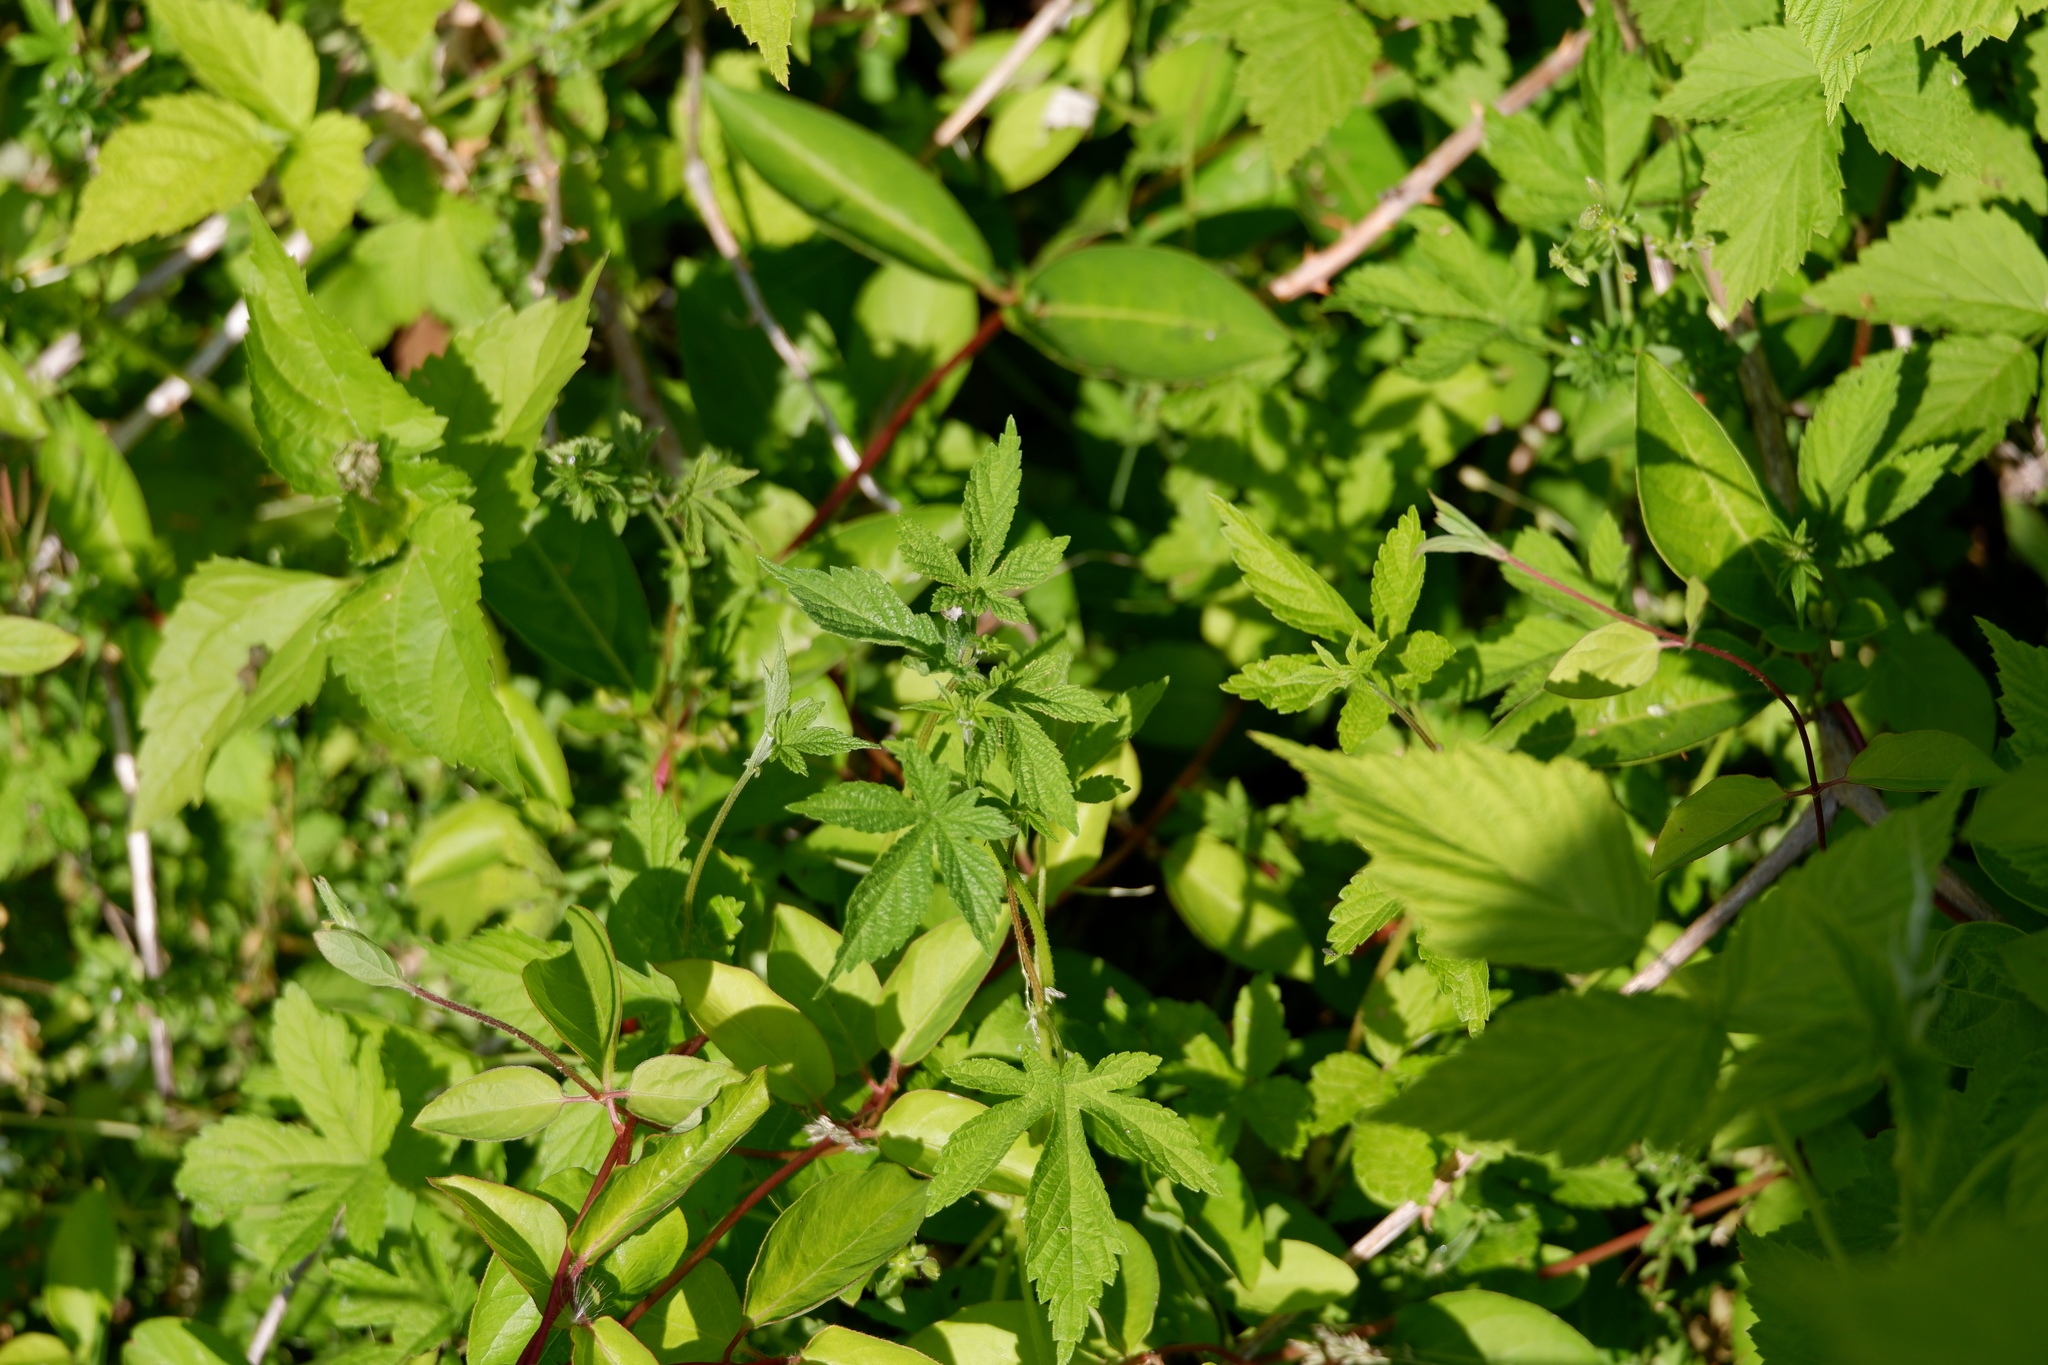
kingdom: Plantae
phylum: Tracheophyta
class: Magnoliopsida
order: Rosales
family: Cannabaceae
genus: Humulus
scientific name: Humulus scandens
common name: Japanese hop
